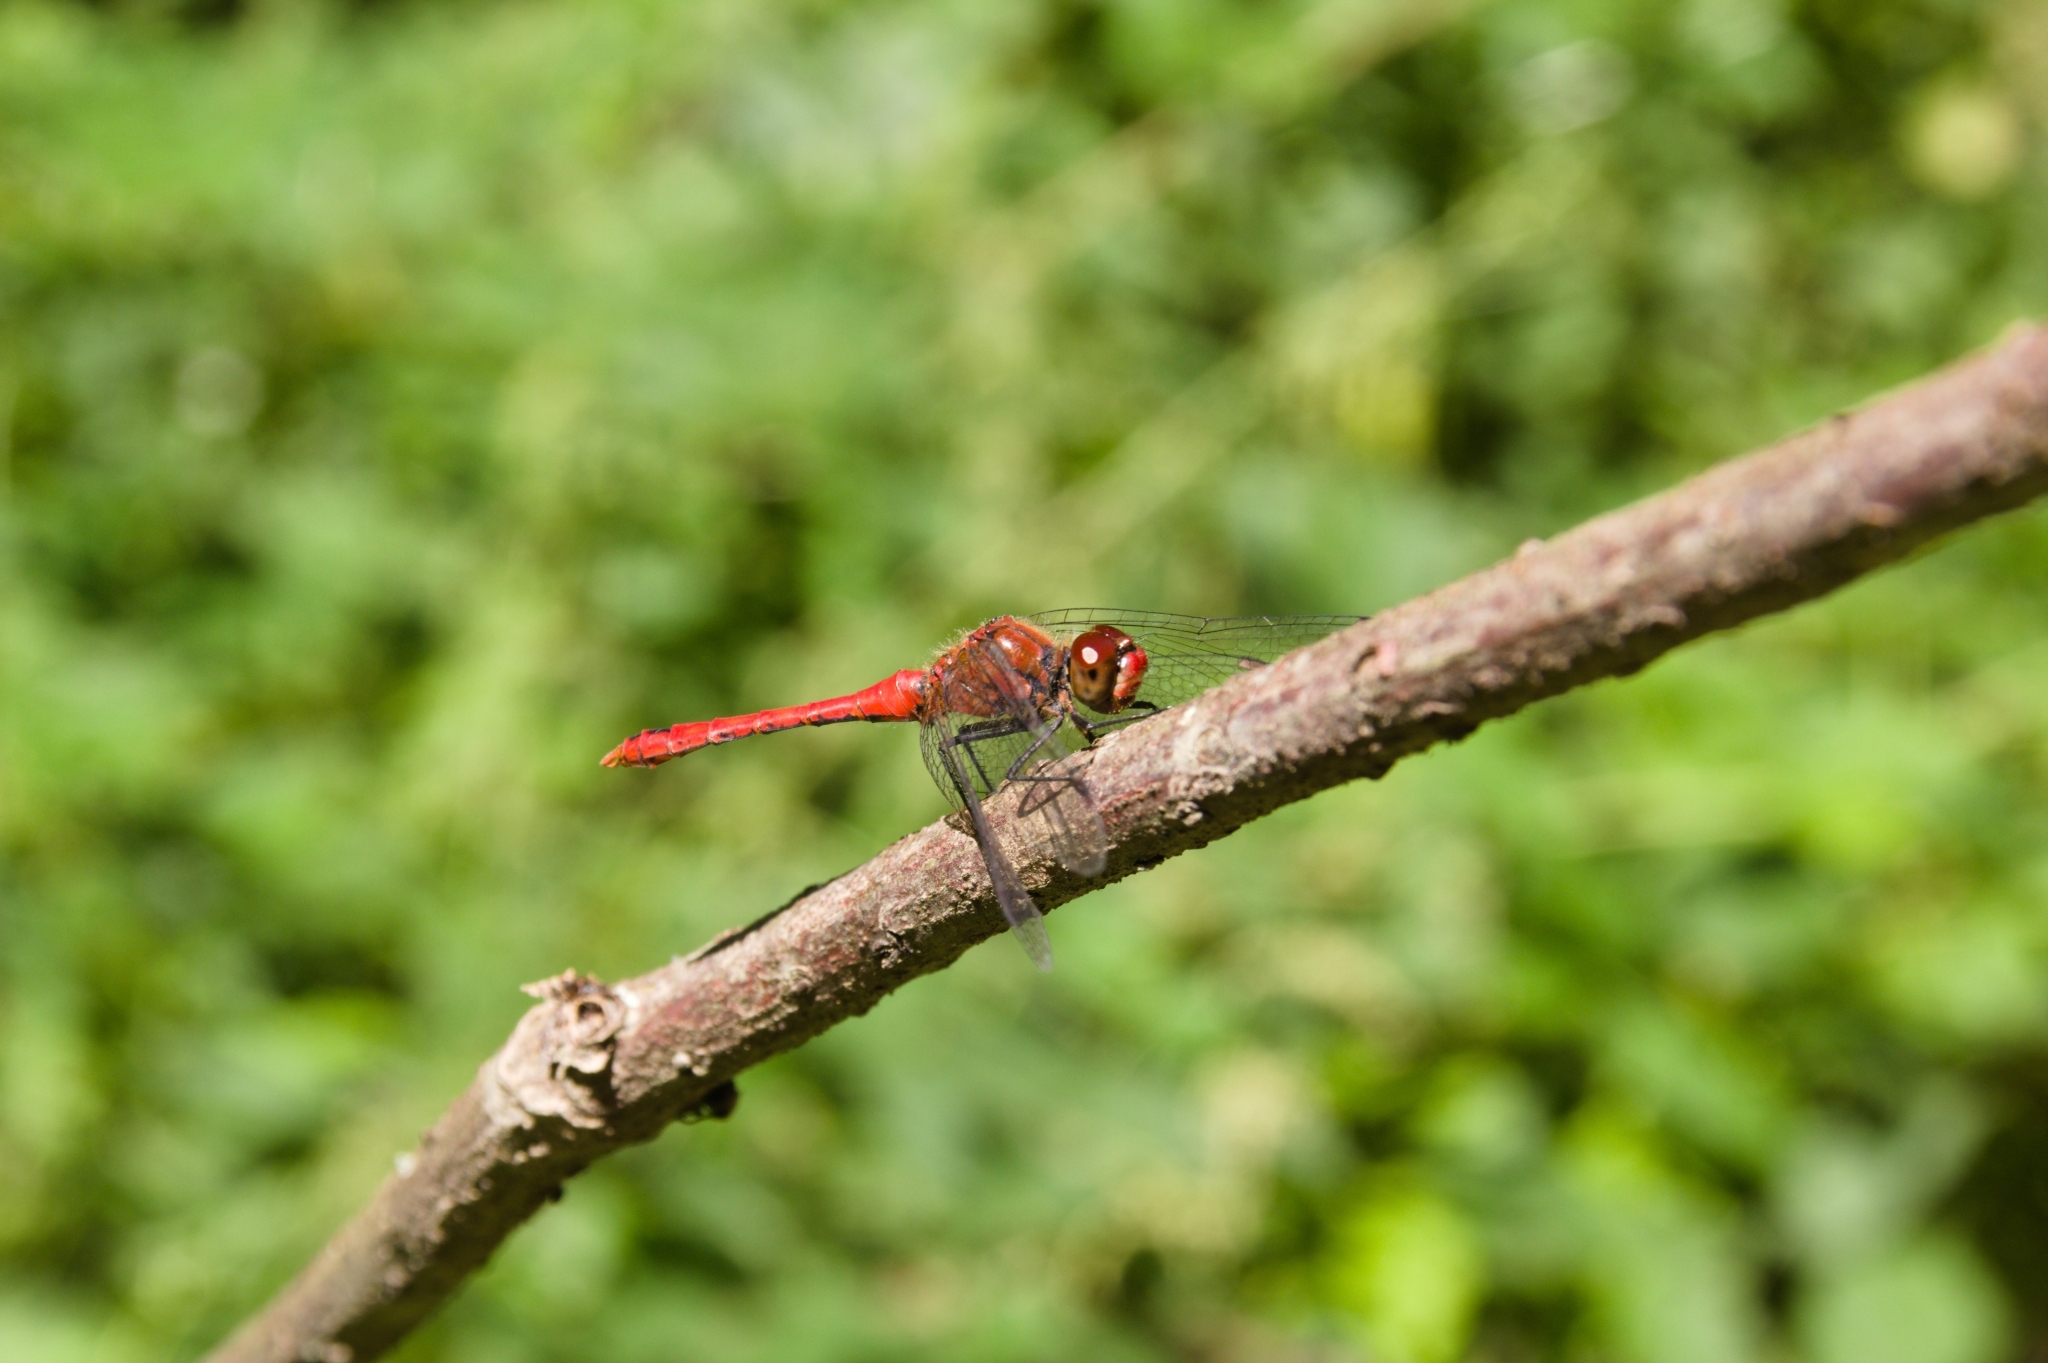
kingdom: Animalia
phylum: Arthropoda
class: Insecta
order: Odonata
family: Libellulidae
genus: Sympetrum
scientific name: Sympetrum sanguineum
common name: Ruddy darter
